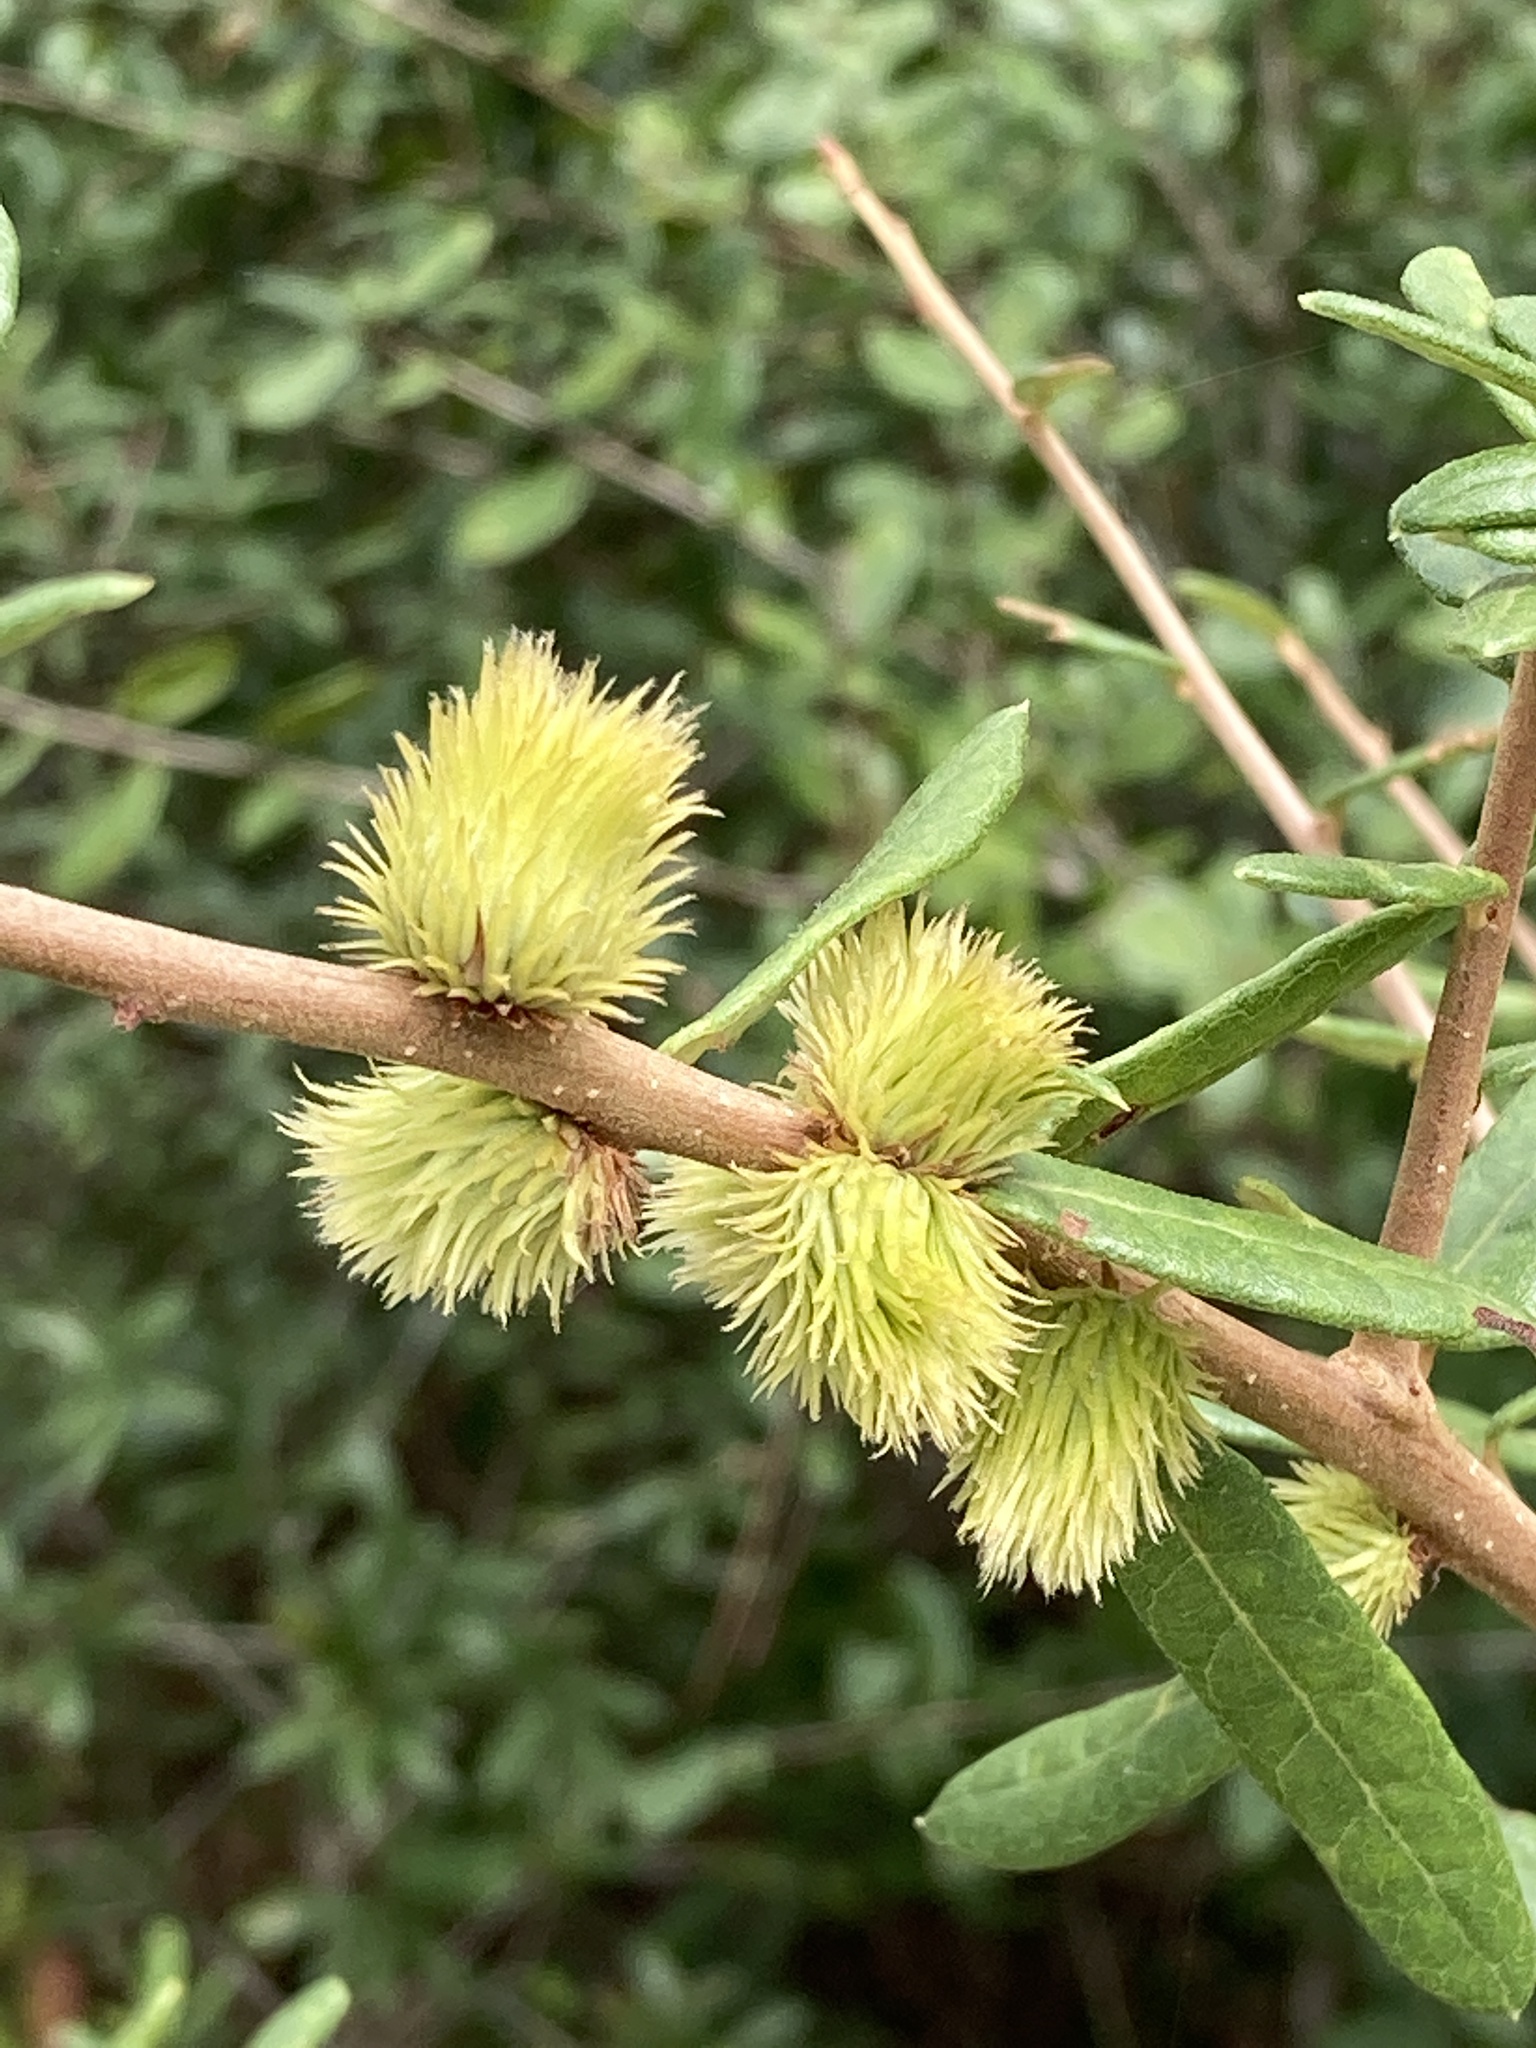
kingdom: Animalia
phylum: Arthropoda
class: Insecta
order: Hymenoptera
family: Cynipidae
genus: Andricus
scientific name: Andricus quercusfoliatus
